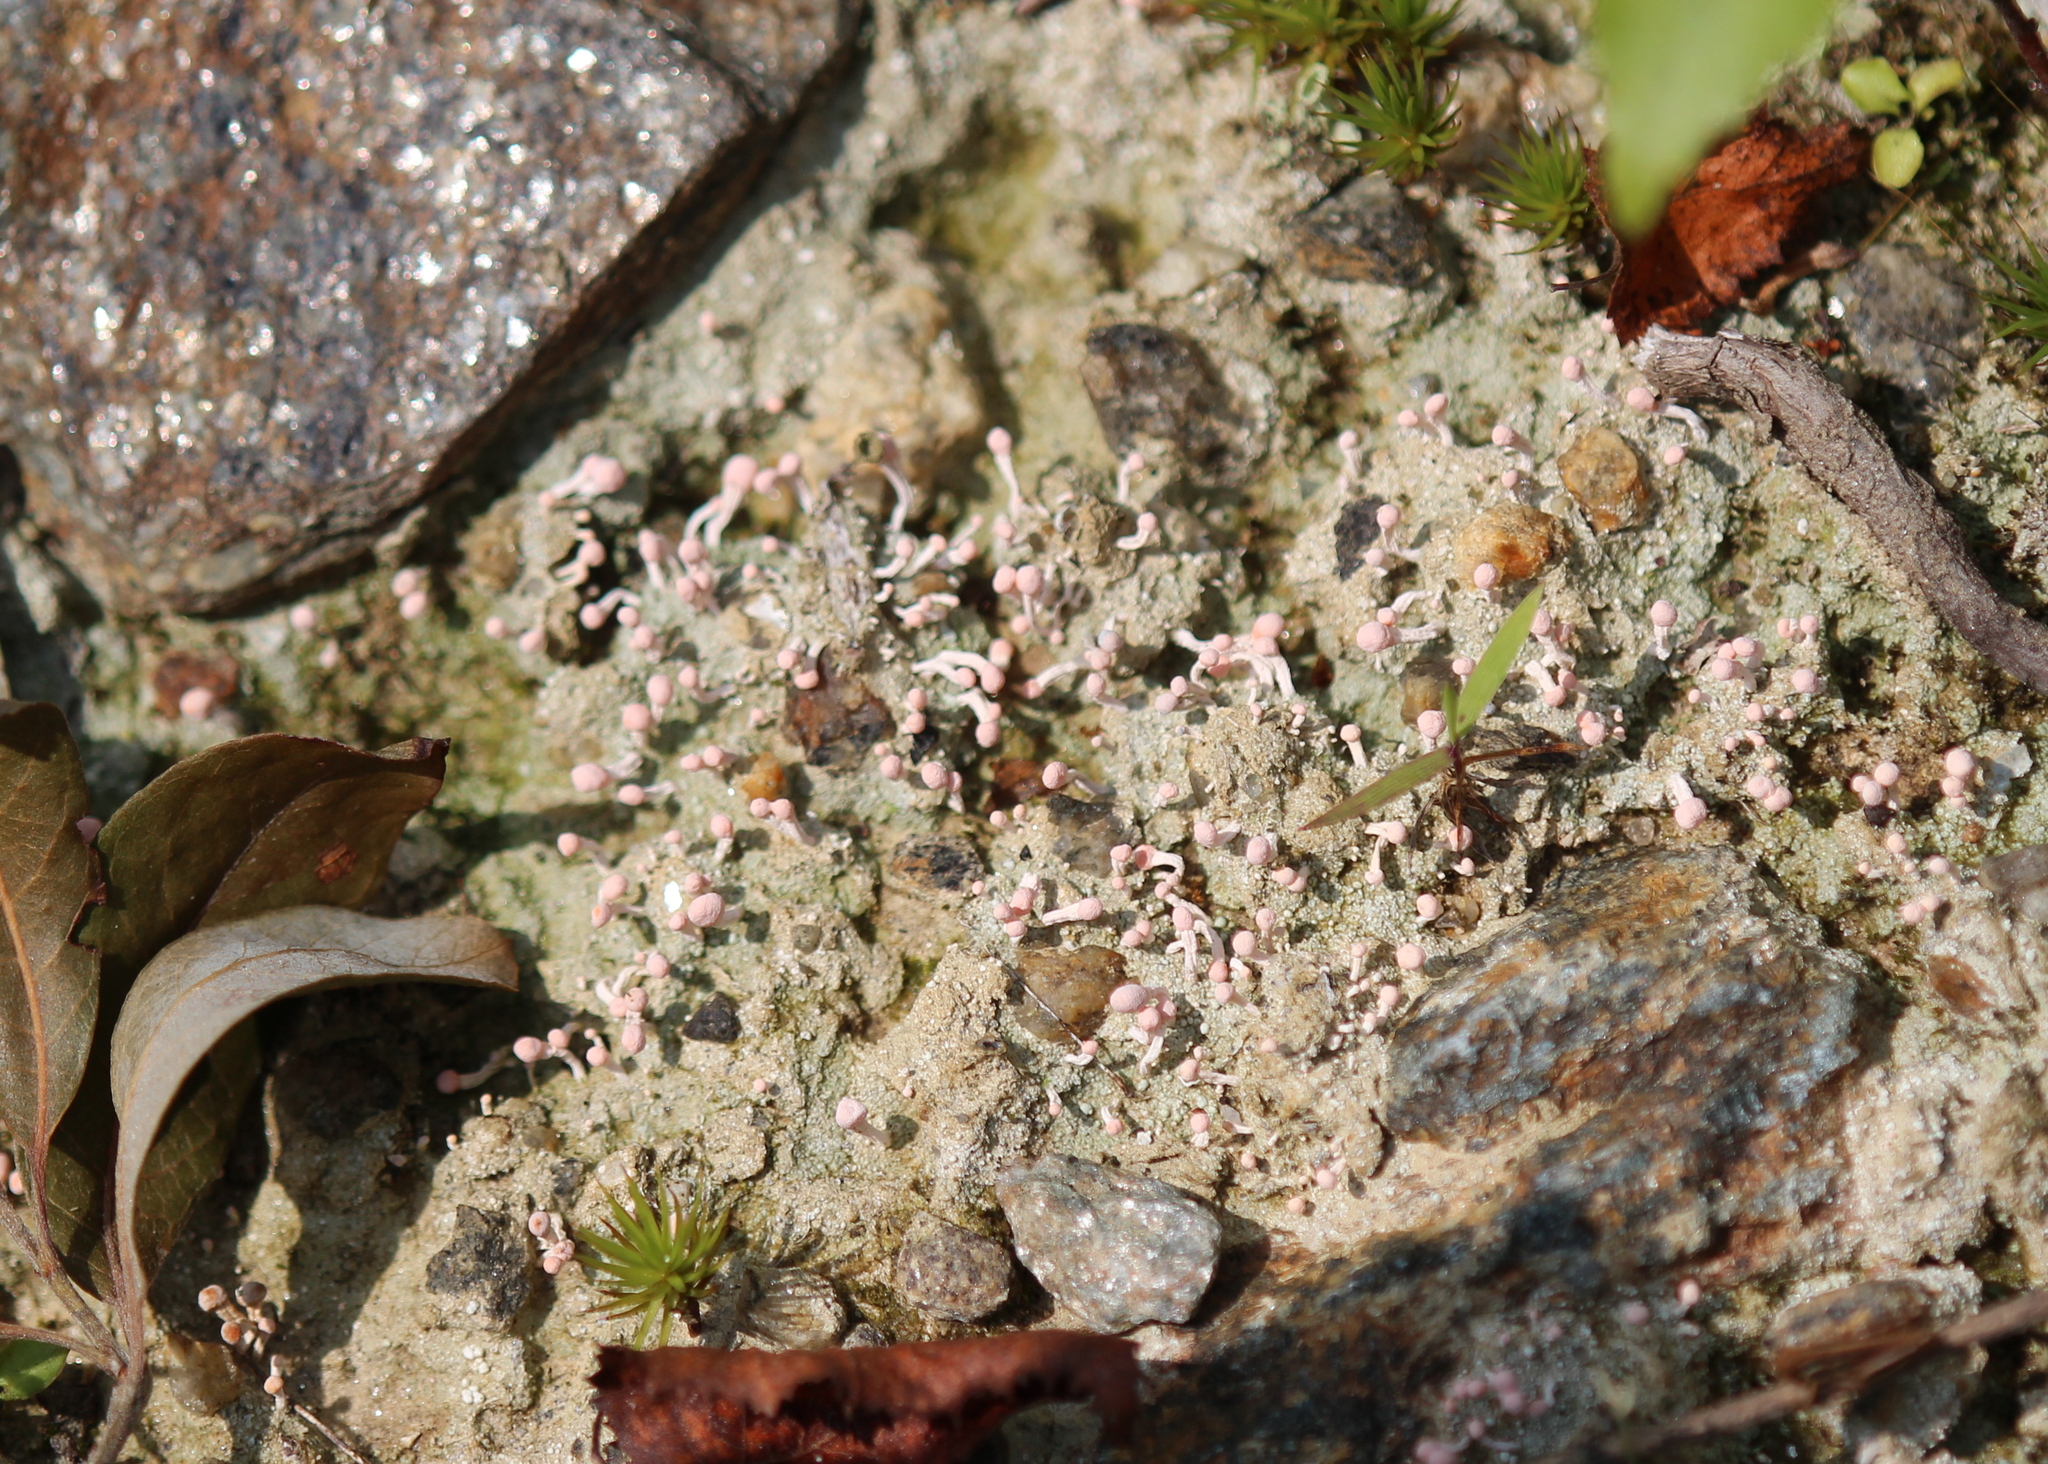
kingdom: Fungi
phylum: Ascomycota
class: Lecanoromycetes
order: Pertusariales
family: Icmadophilaceae
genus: Dibaeis
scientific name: Dibaeis baeomyces
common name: Pink earth lichen
